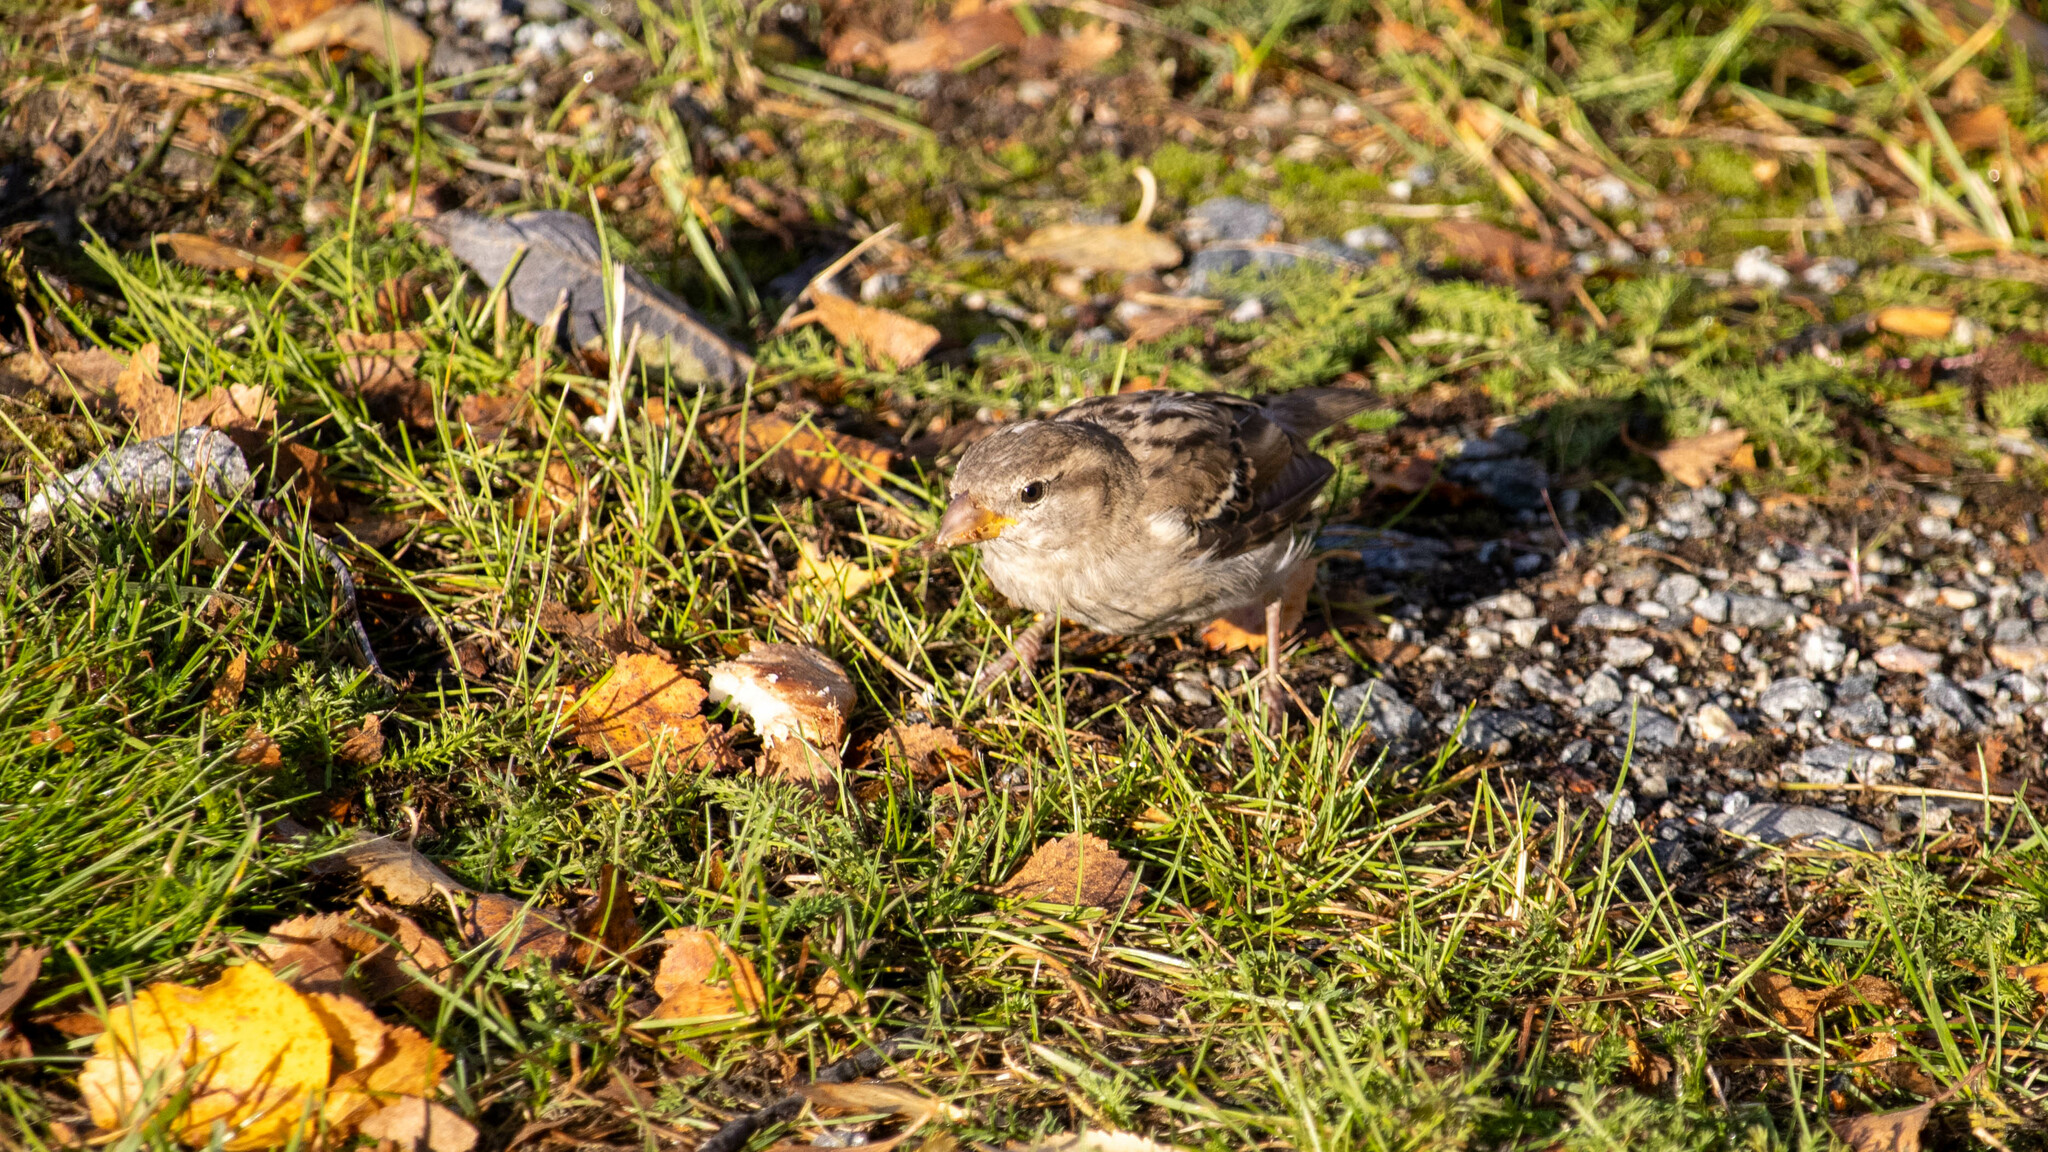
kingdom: Animalia
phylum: Chordata
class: Aves
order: Passeriformes
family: Passeridae
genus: Passer
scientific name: Passer domesticus
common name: House sparrow
